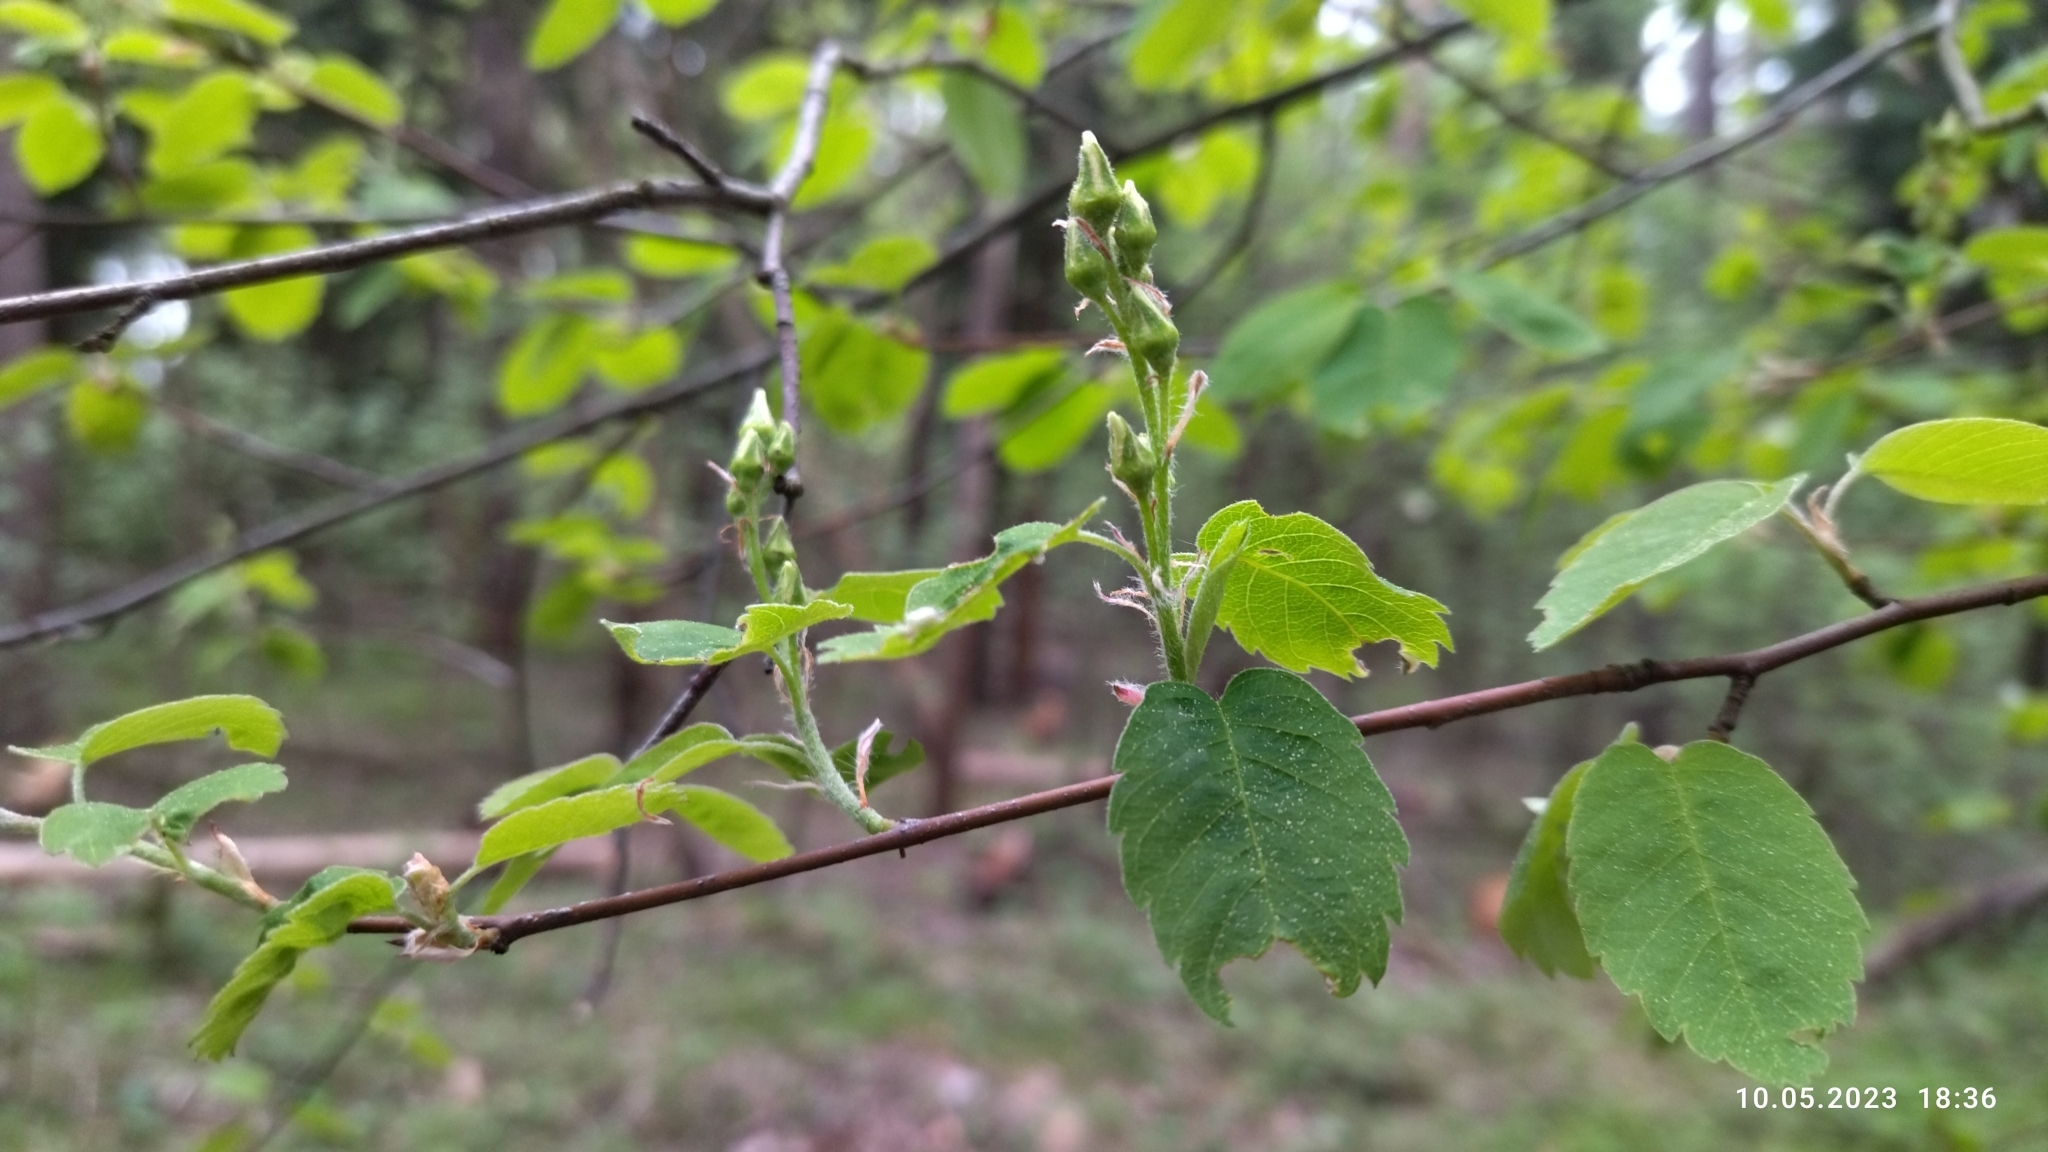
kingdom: Plantae
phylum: Tracheophyta
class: Magnoliopsida
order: Rosales
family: Rosaceae
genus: Amelanchier
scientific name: Amelanchier alnifolia
